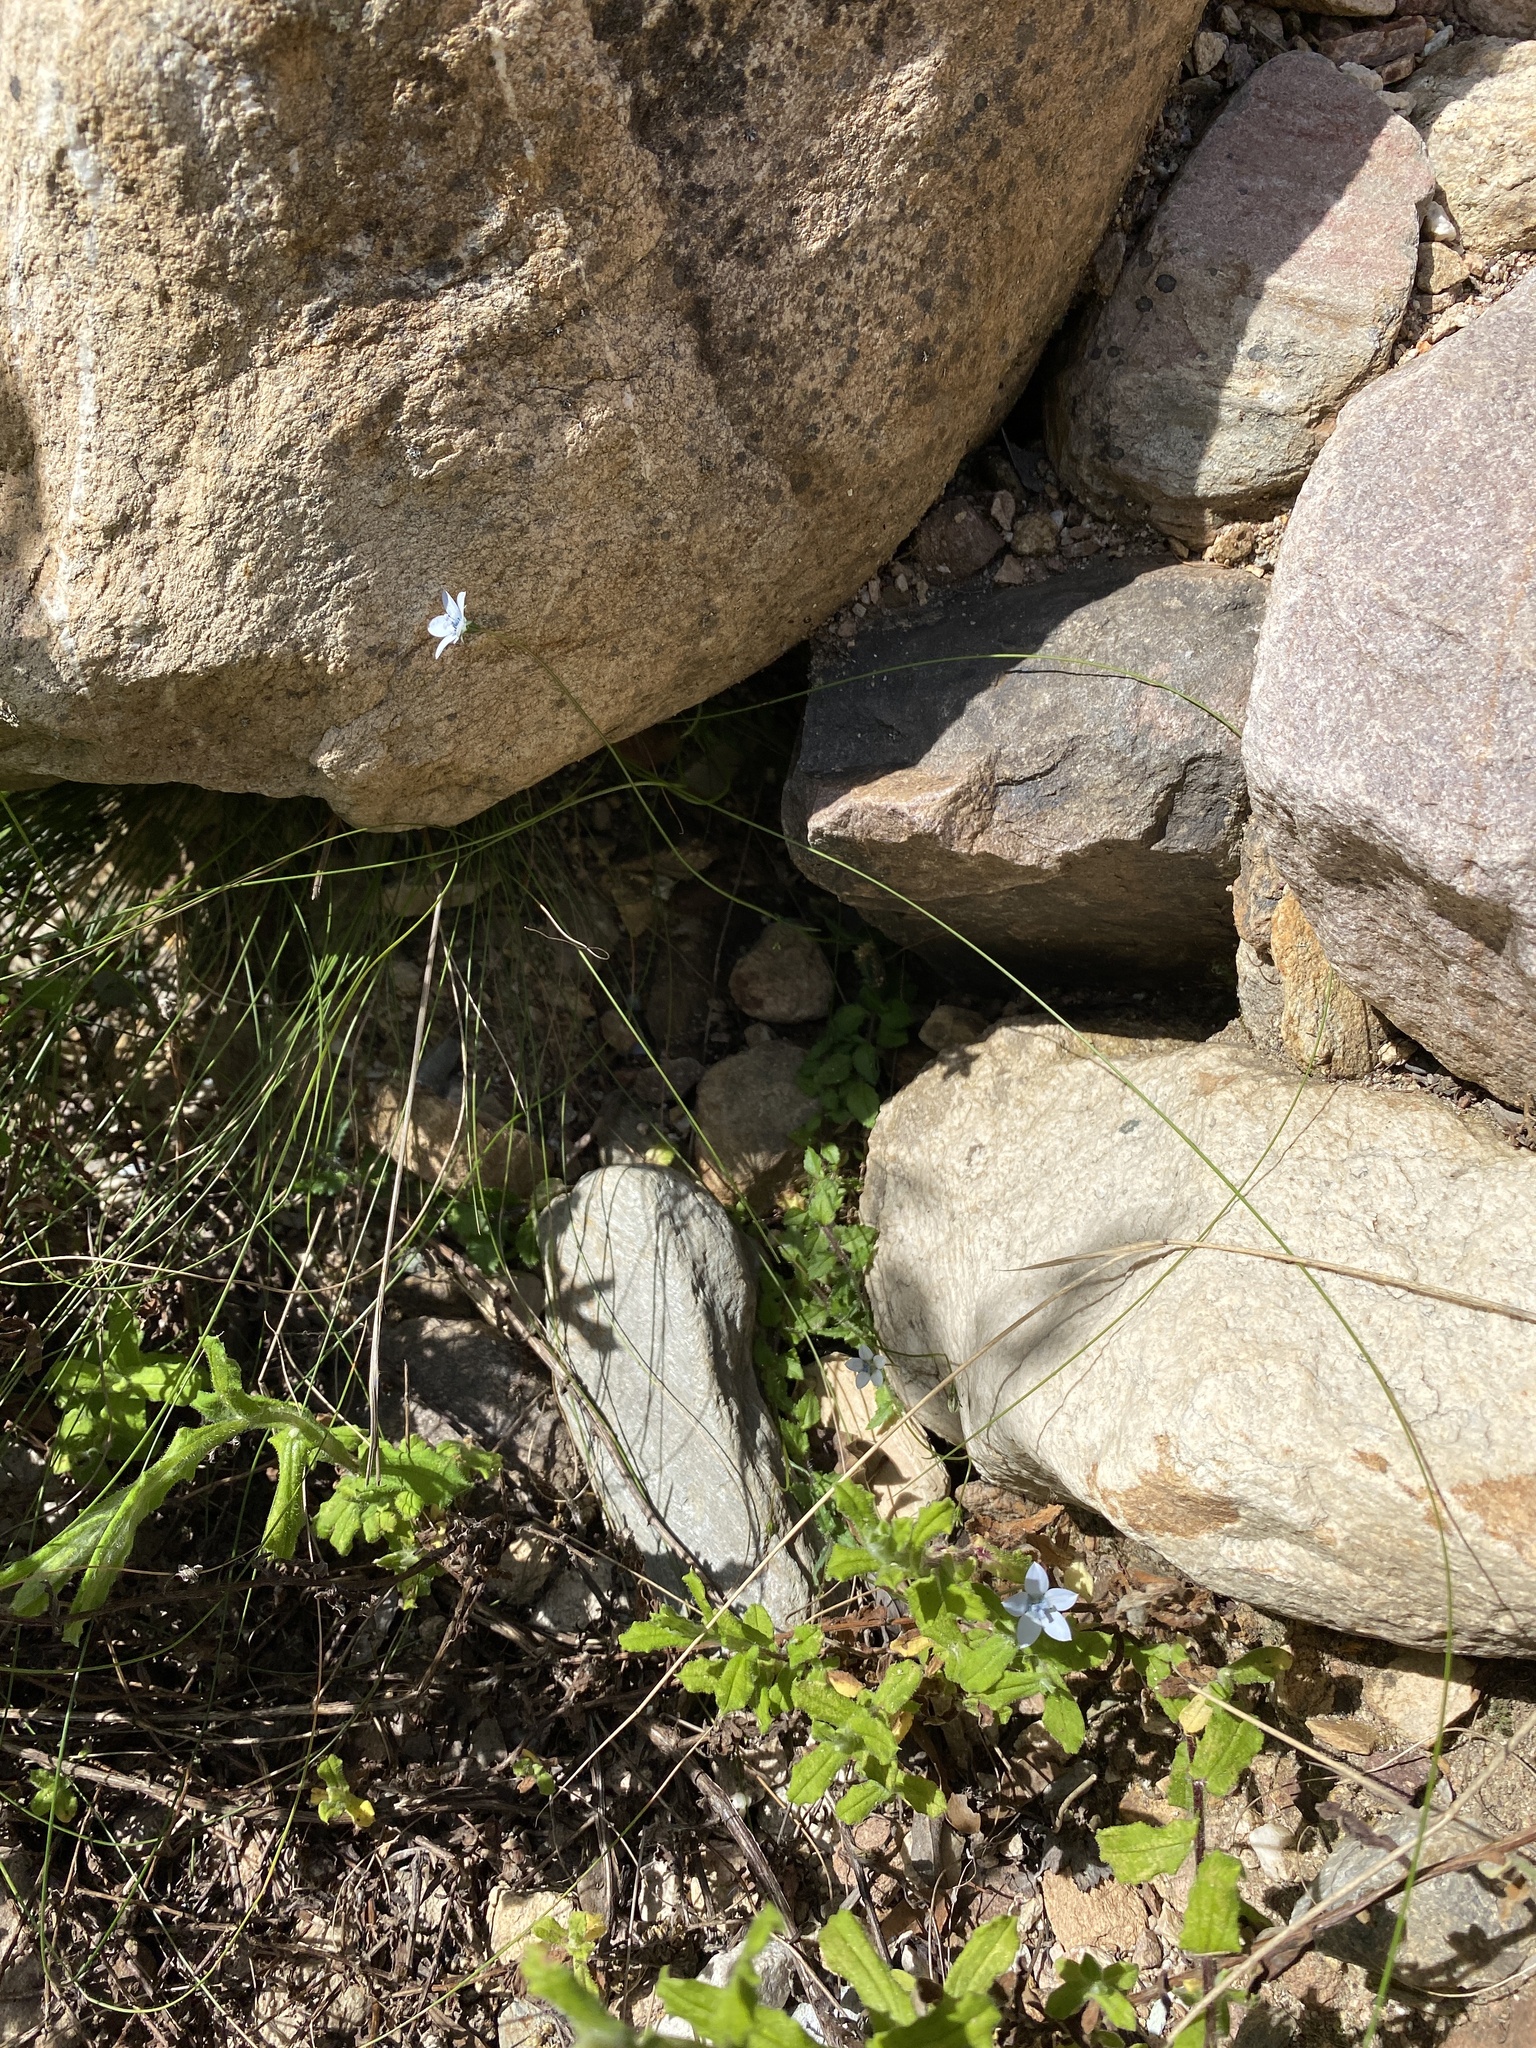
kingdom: Plantae
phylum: Tracheophyta
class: Magnoliopsida
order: Asterales
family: Campanulaceae
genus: Wahlenbergia
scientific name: Wahlenbergia cernua
